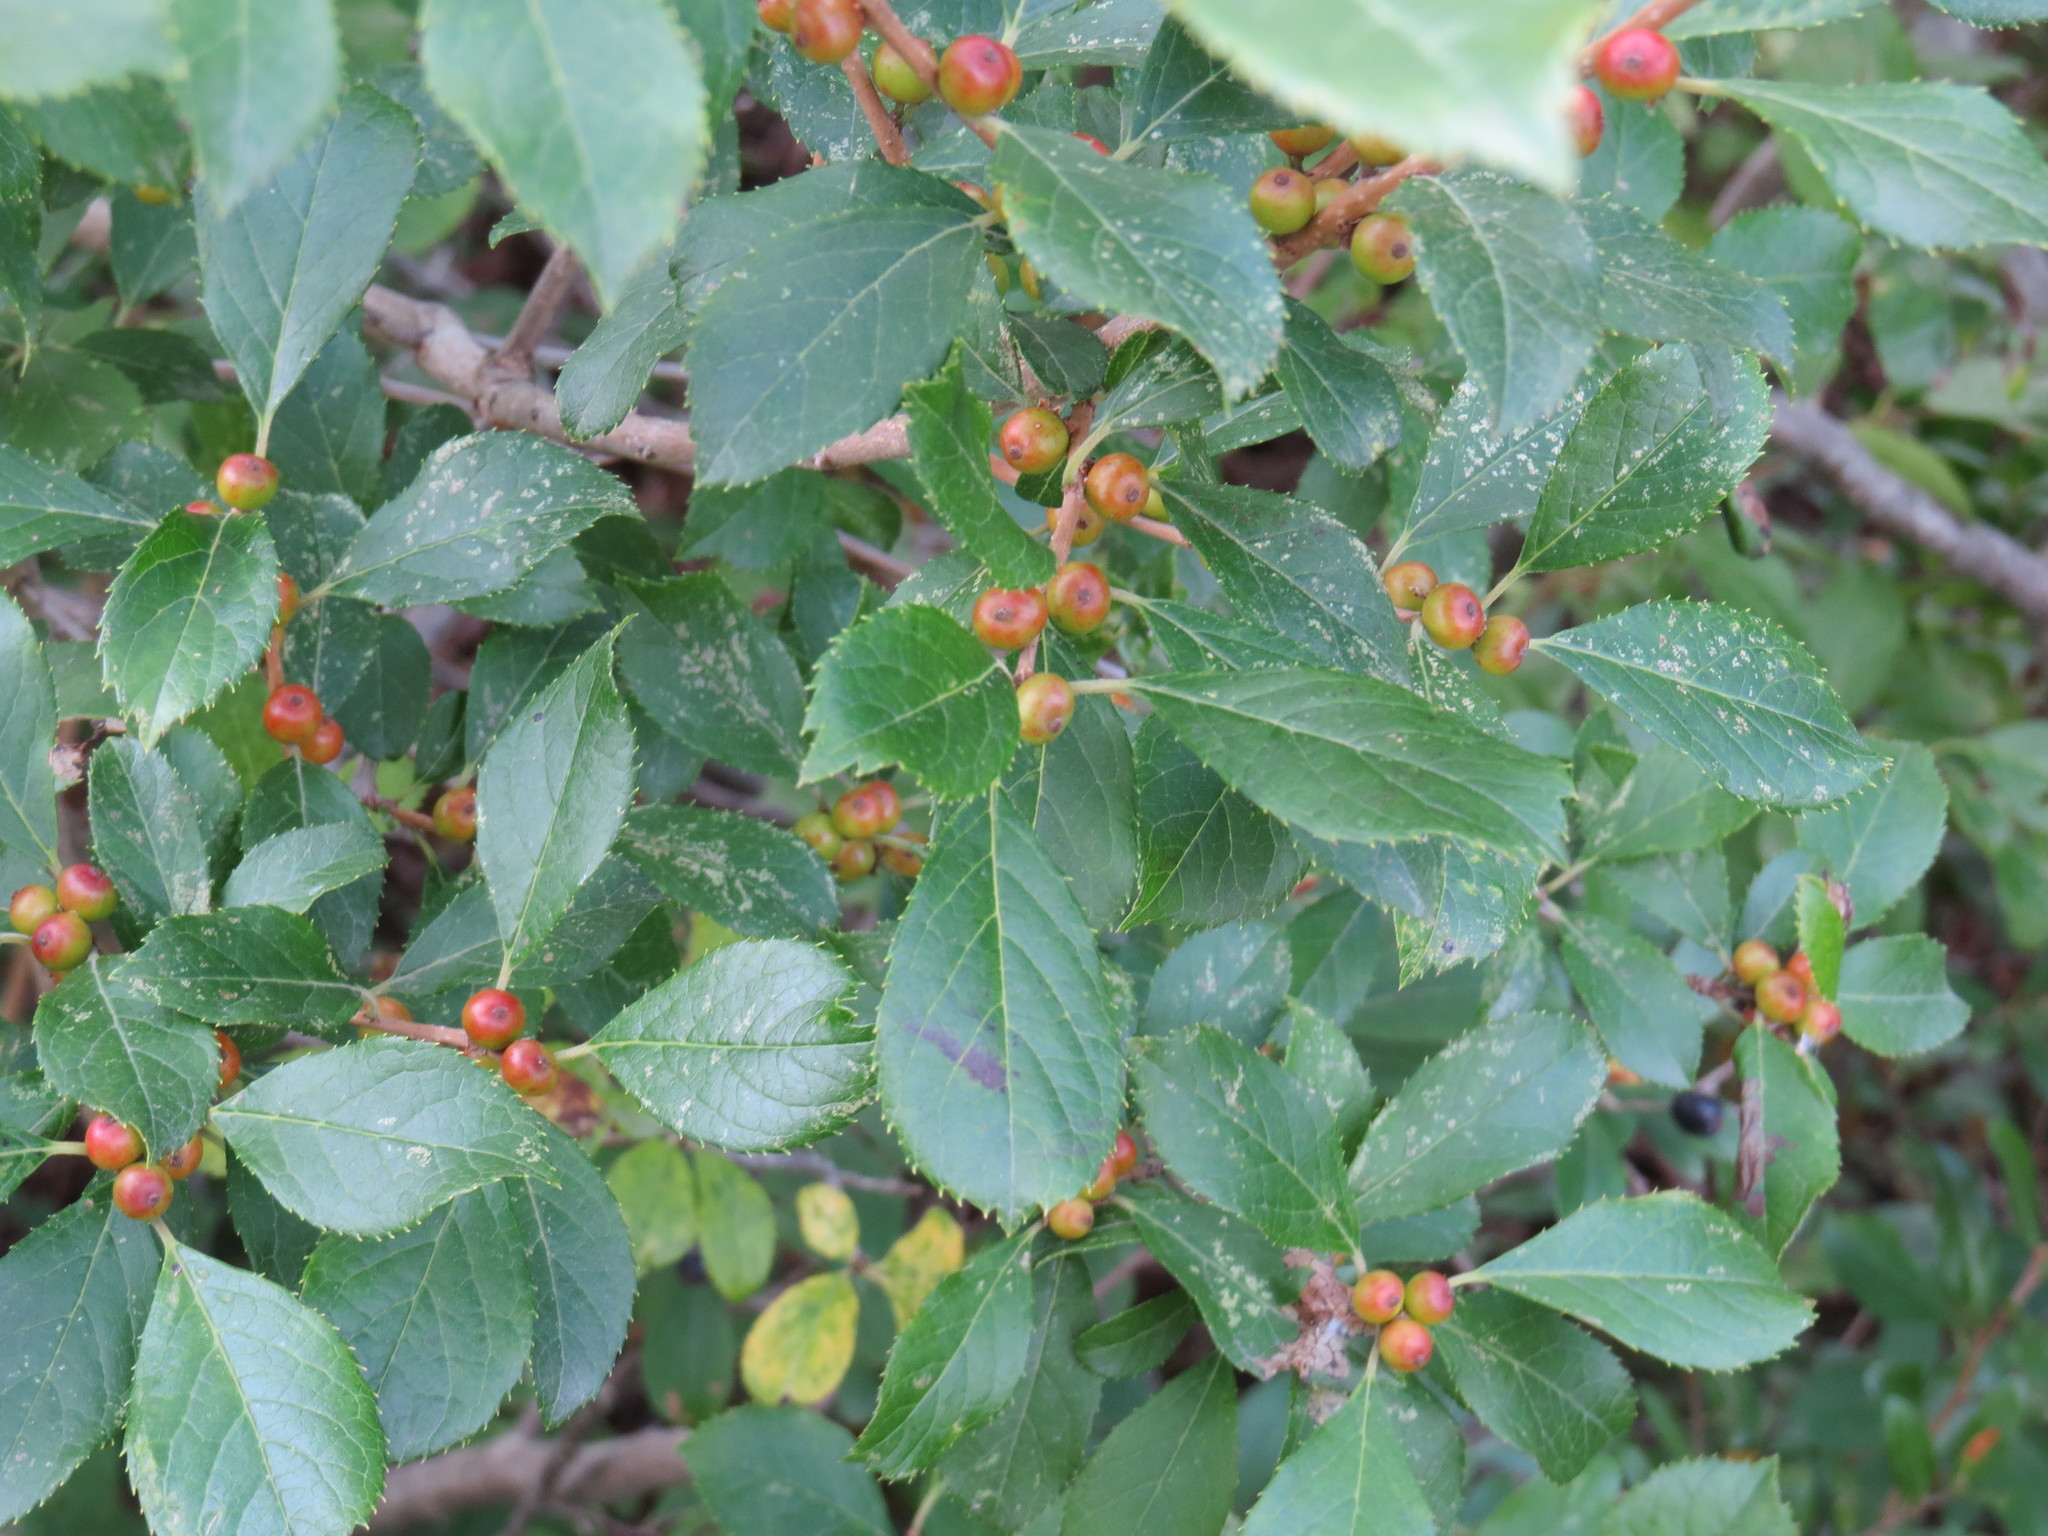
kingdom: Plantae
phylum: Tracheophyta
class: Magnoliopsida
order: Aquifoliales
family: Aquifoliaceae
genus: Ilex
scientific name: Ilex verticillata
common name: Virginia winterberry
